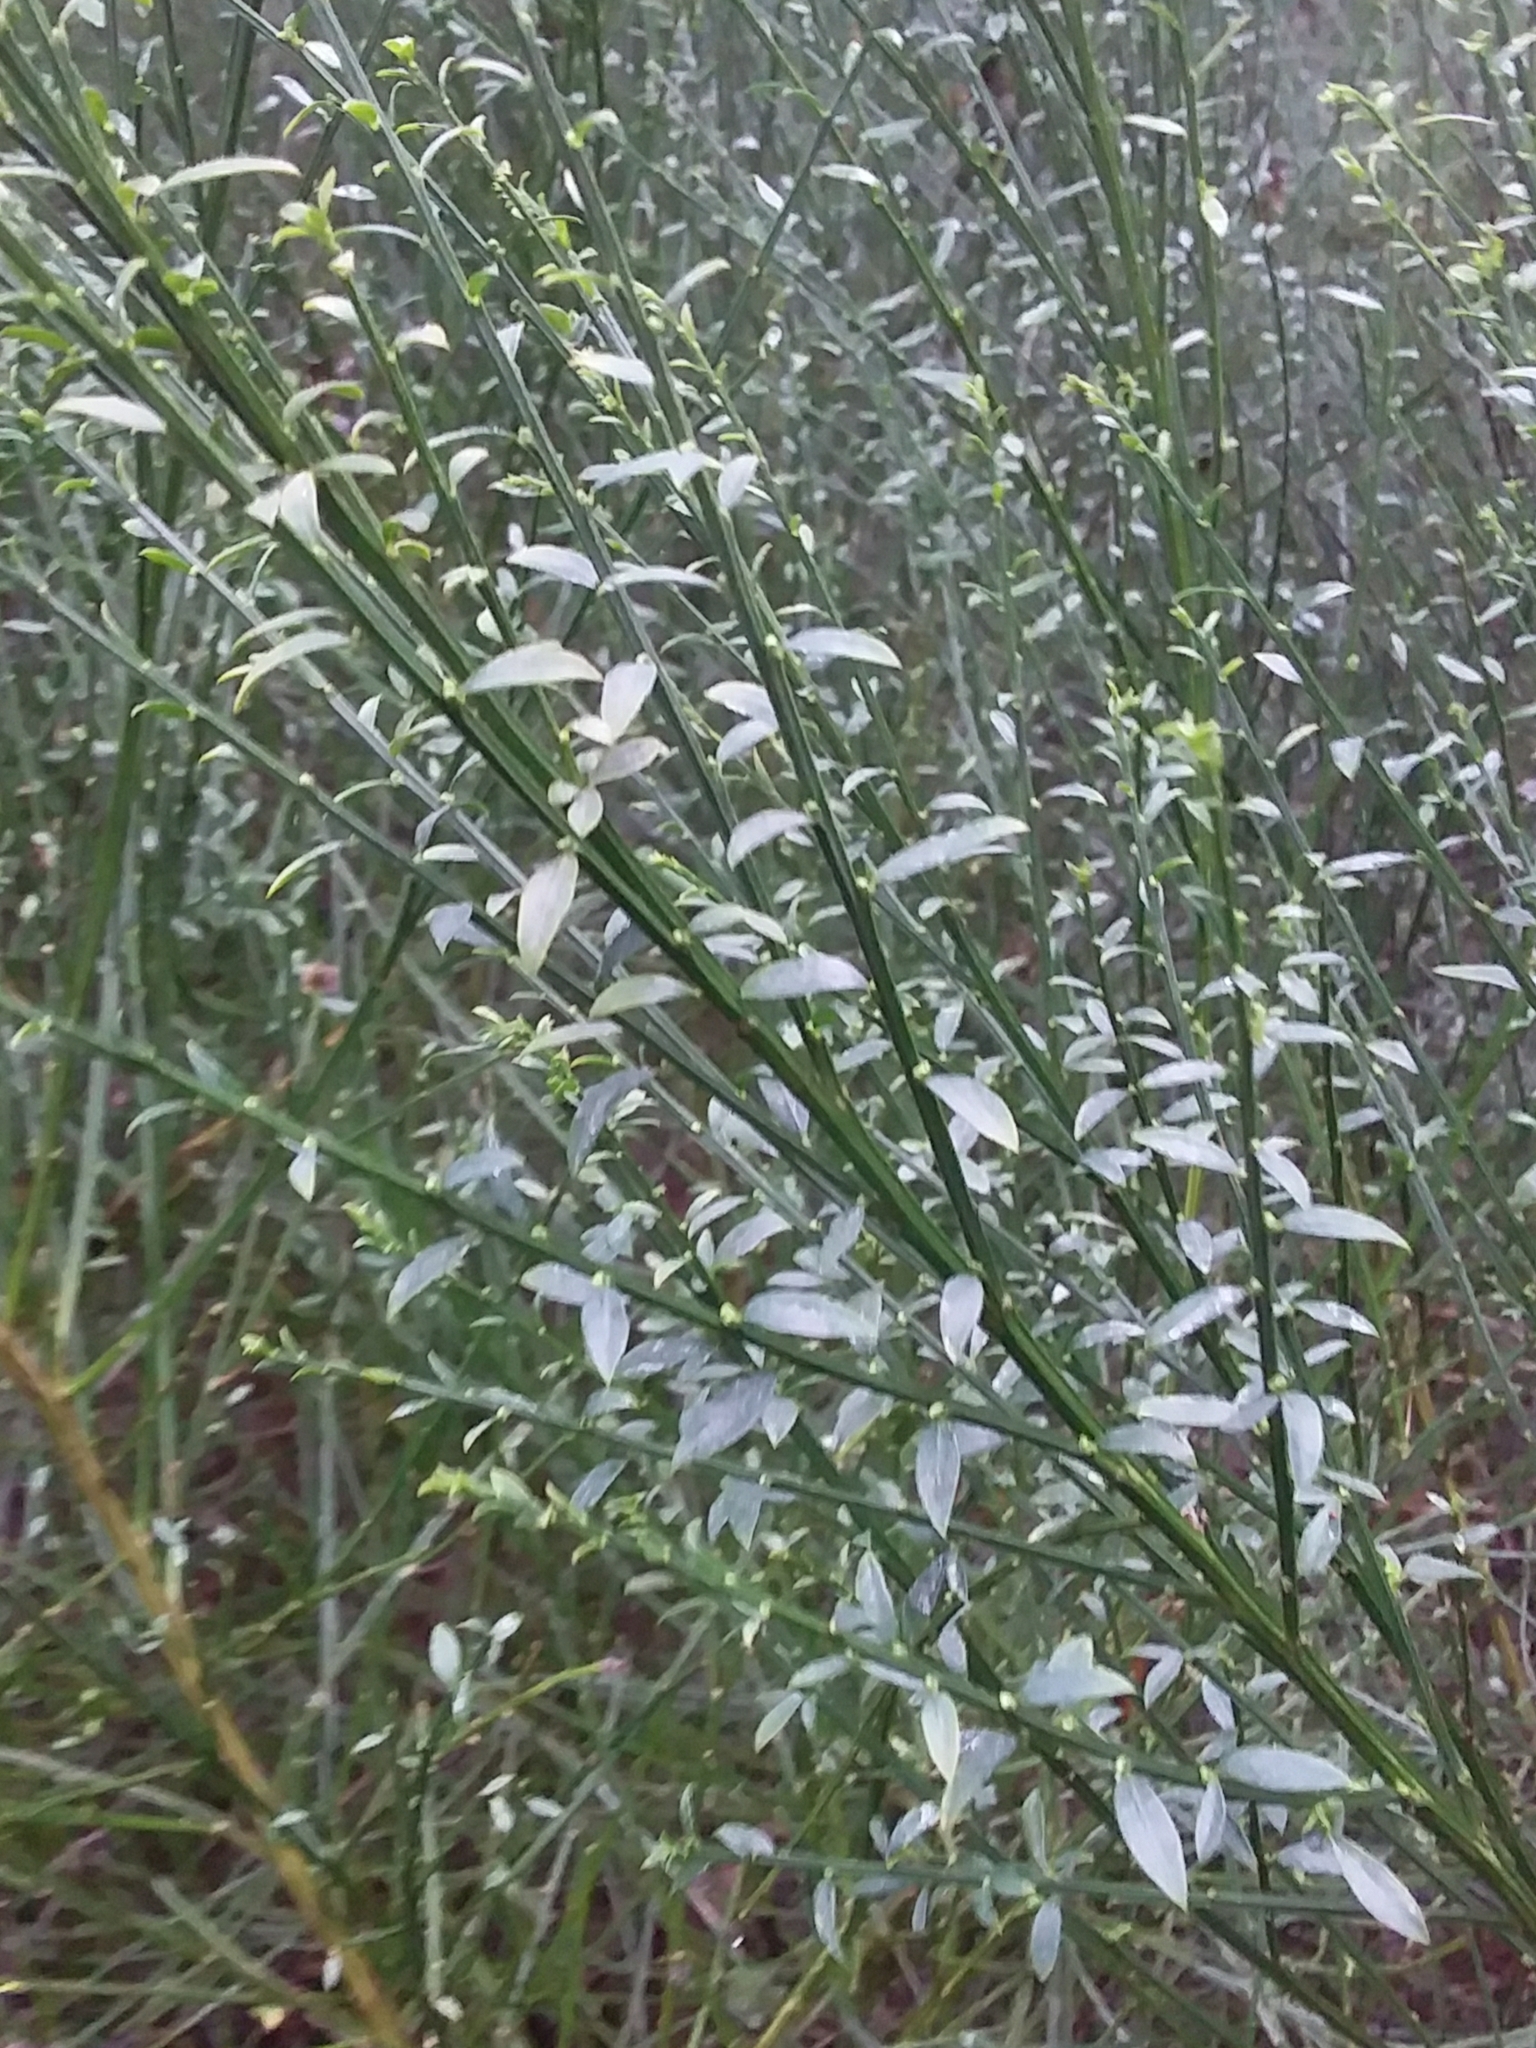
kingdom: Plantae
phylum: Tracheophyta
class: Magnoliopsida
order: Fabales
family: Fabaceae
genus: Cytisus
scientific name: Cytisus scoparius
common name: Scotch broom
